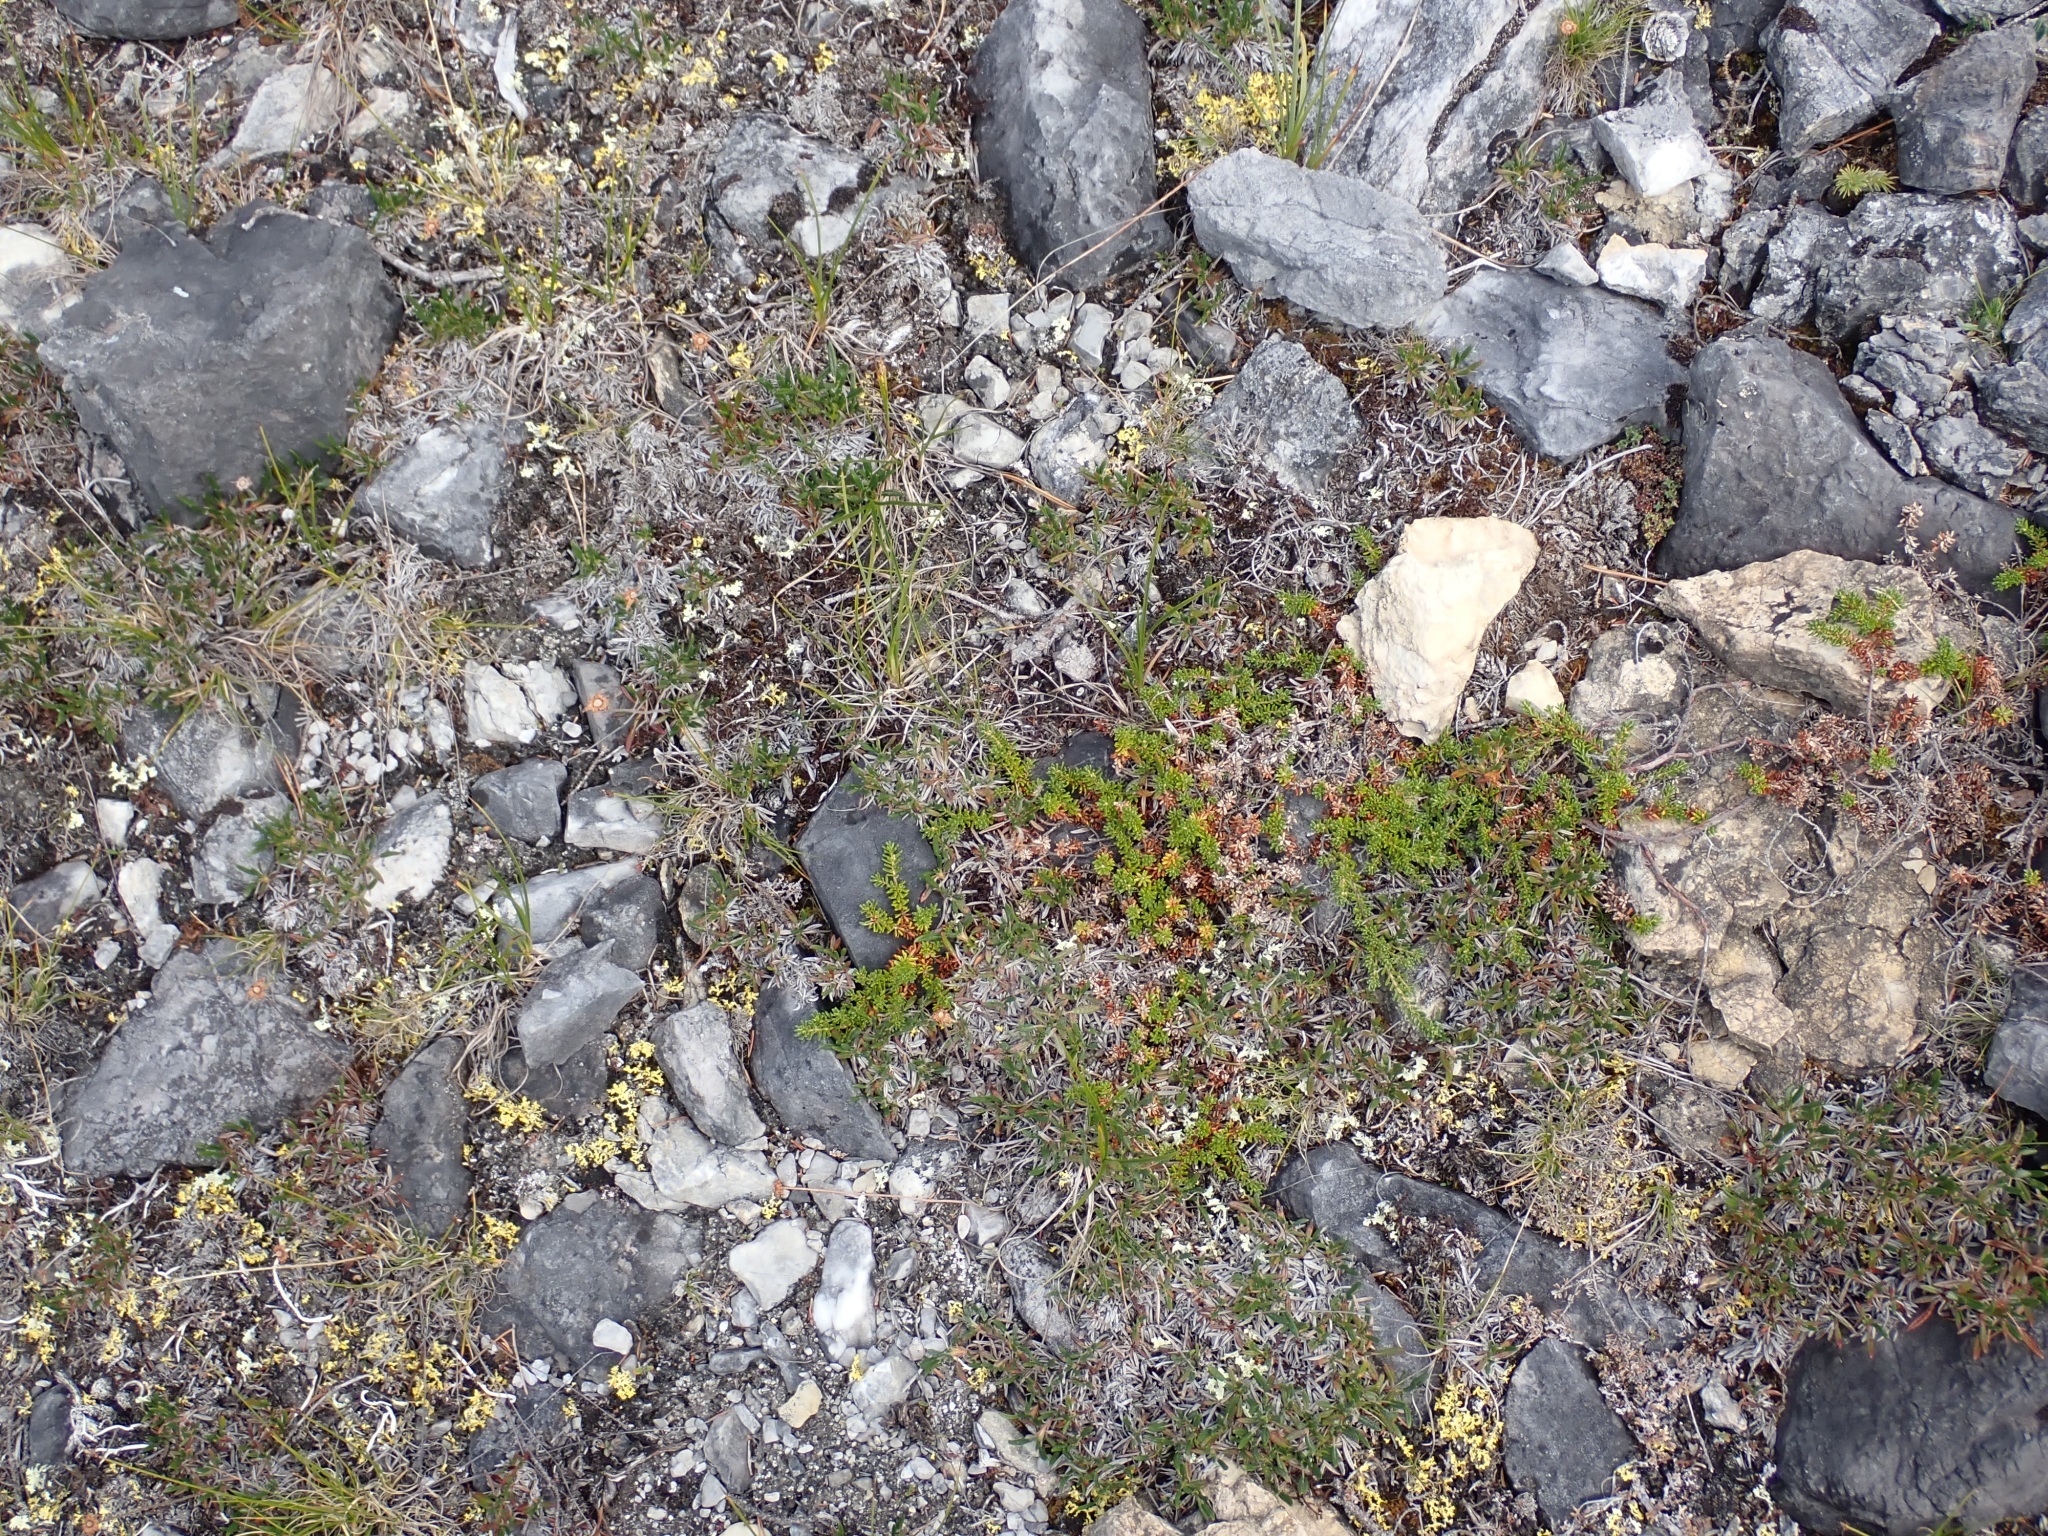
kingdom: Plantae
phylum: Tracheophyta
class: Magnoliopsida
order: Ericales
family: Ericaceae
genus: Empetrum
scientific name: Empetrum nigrum
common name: Black crowberry
